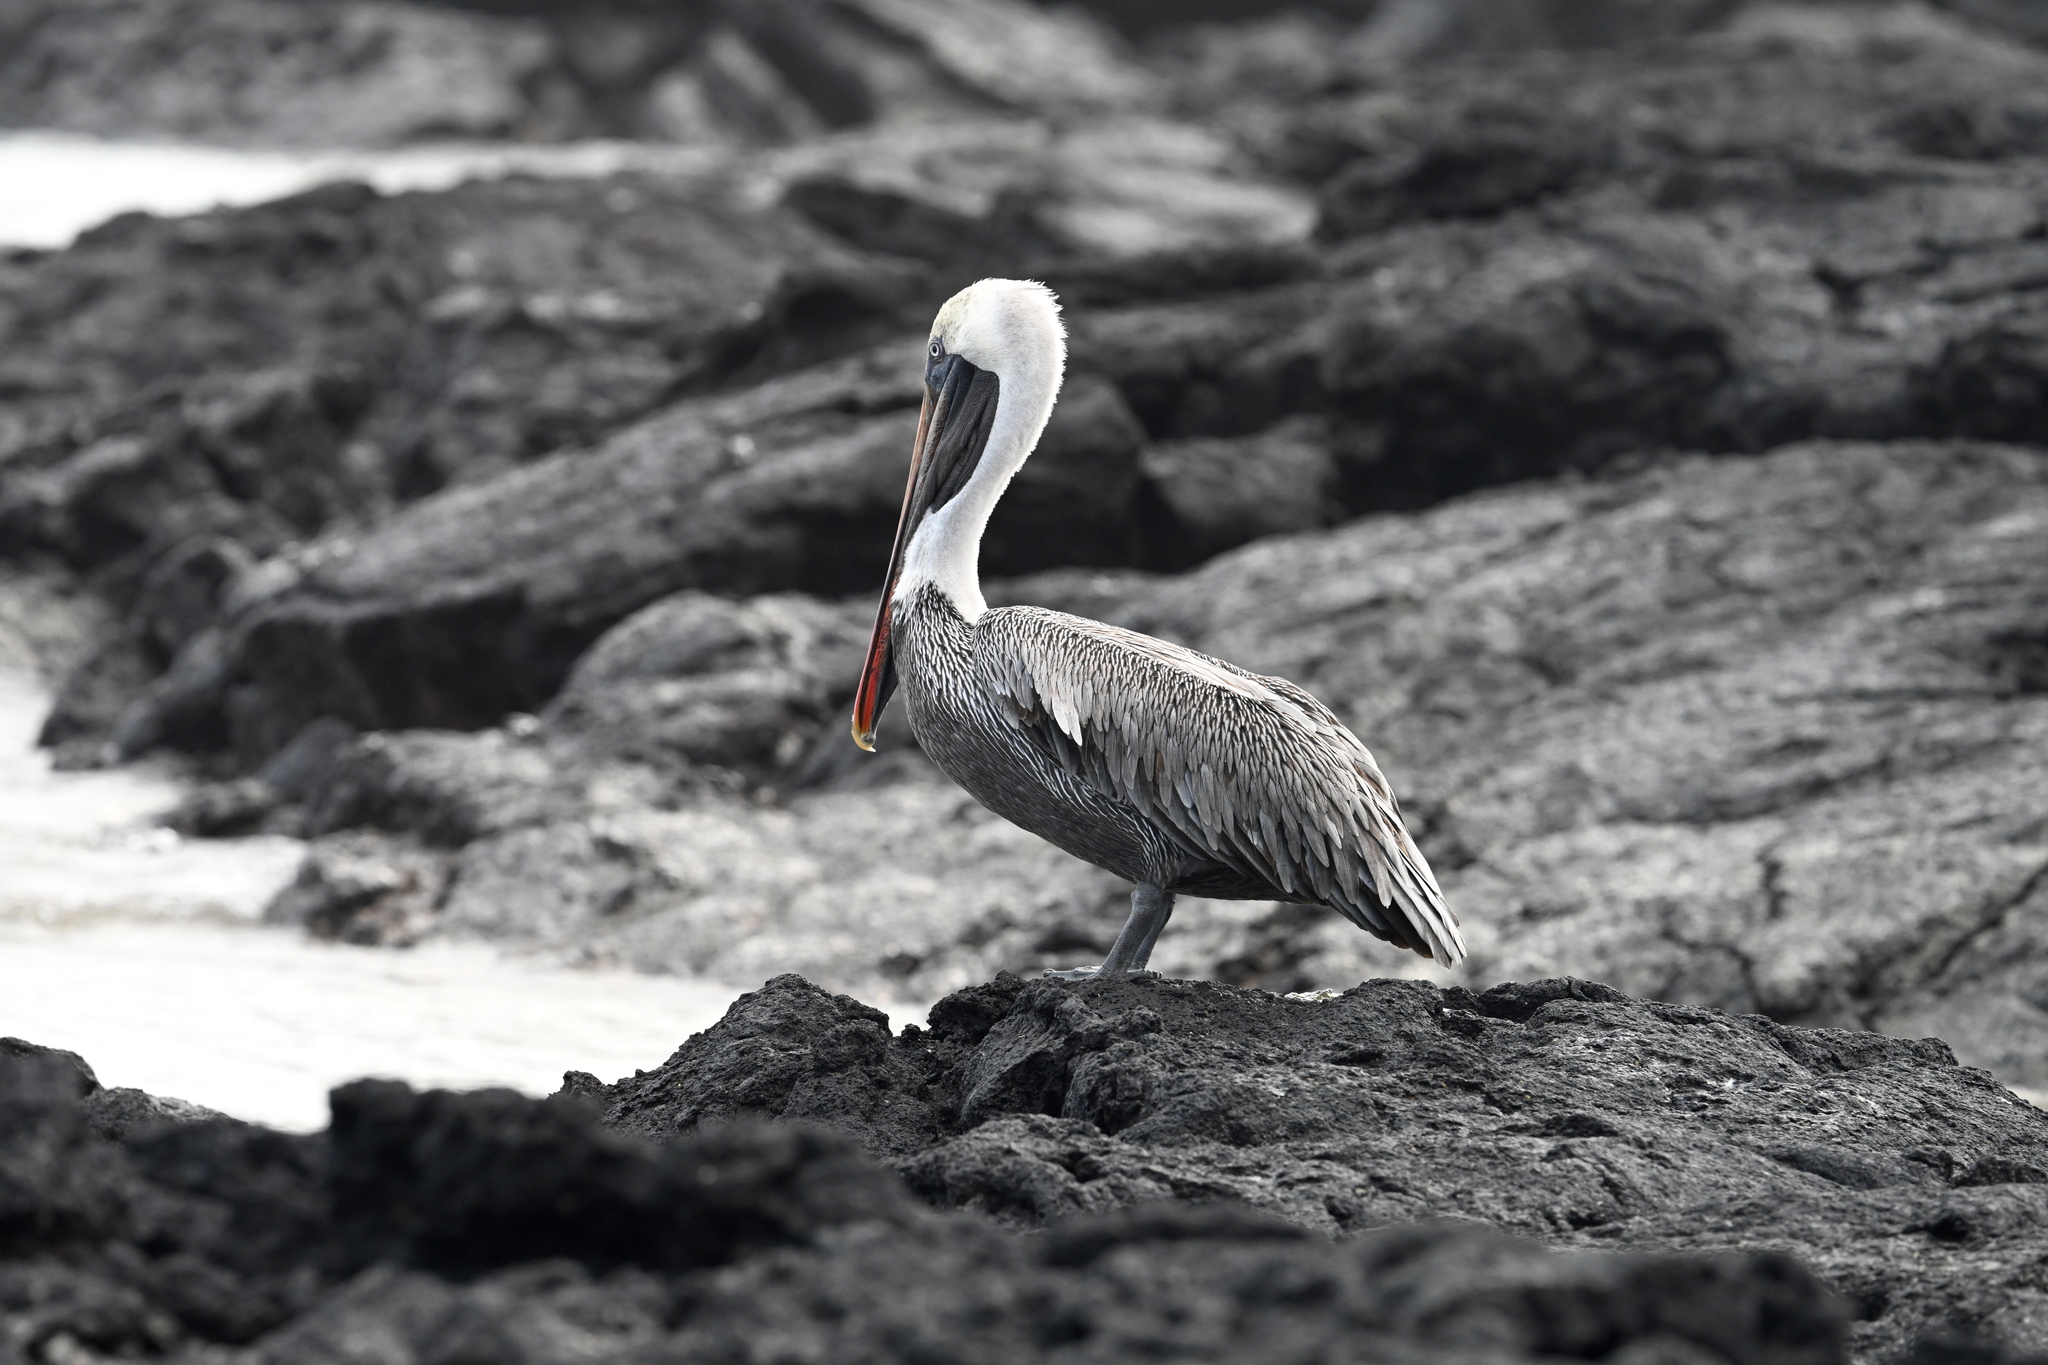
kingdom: Animalia
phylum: Chordata
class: Aves
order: Pelecaniformes
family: Pelecanidae
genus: Pelecanus
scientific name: Pelecanus occidentalis
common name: Brown pelican
